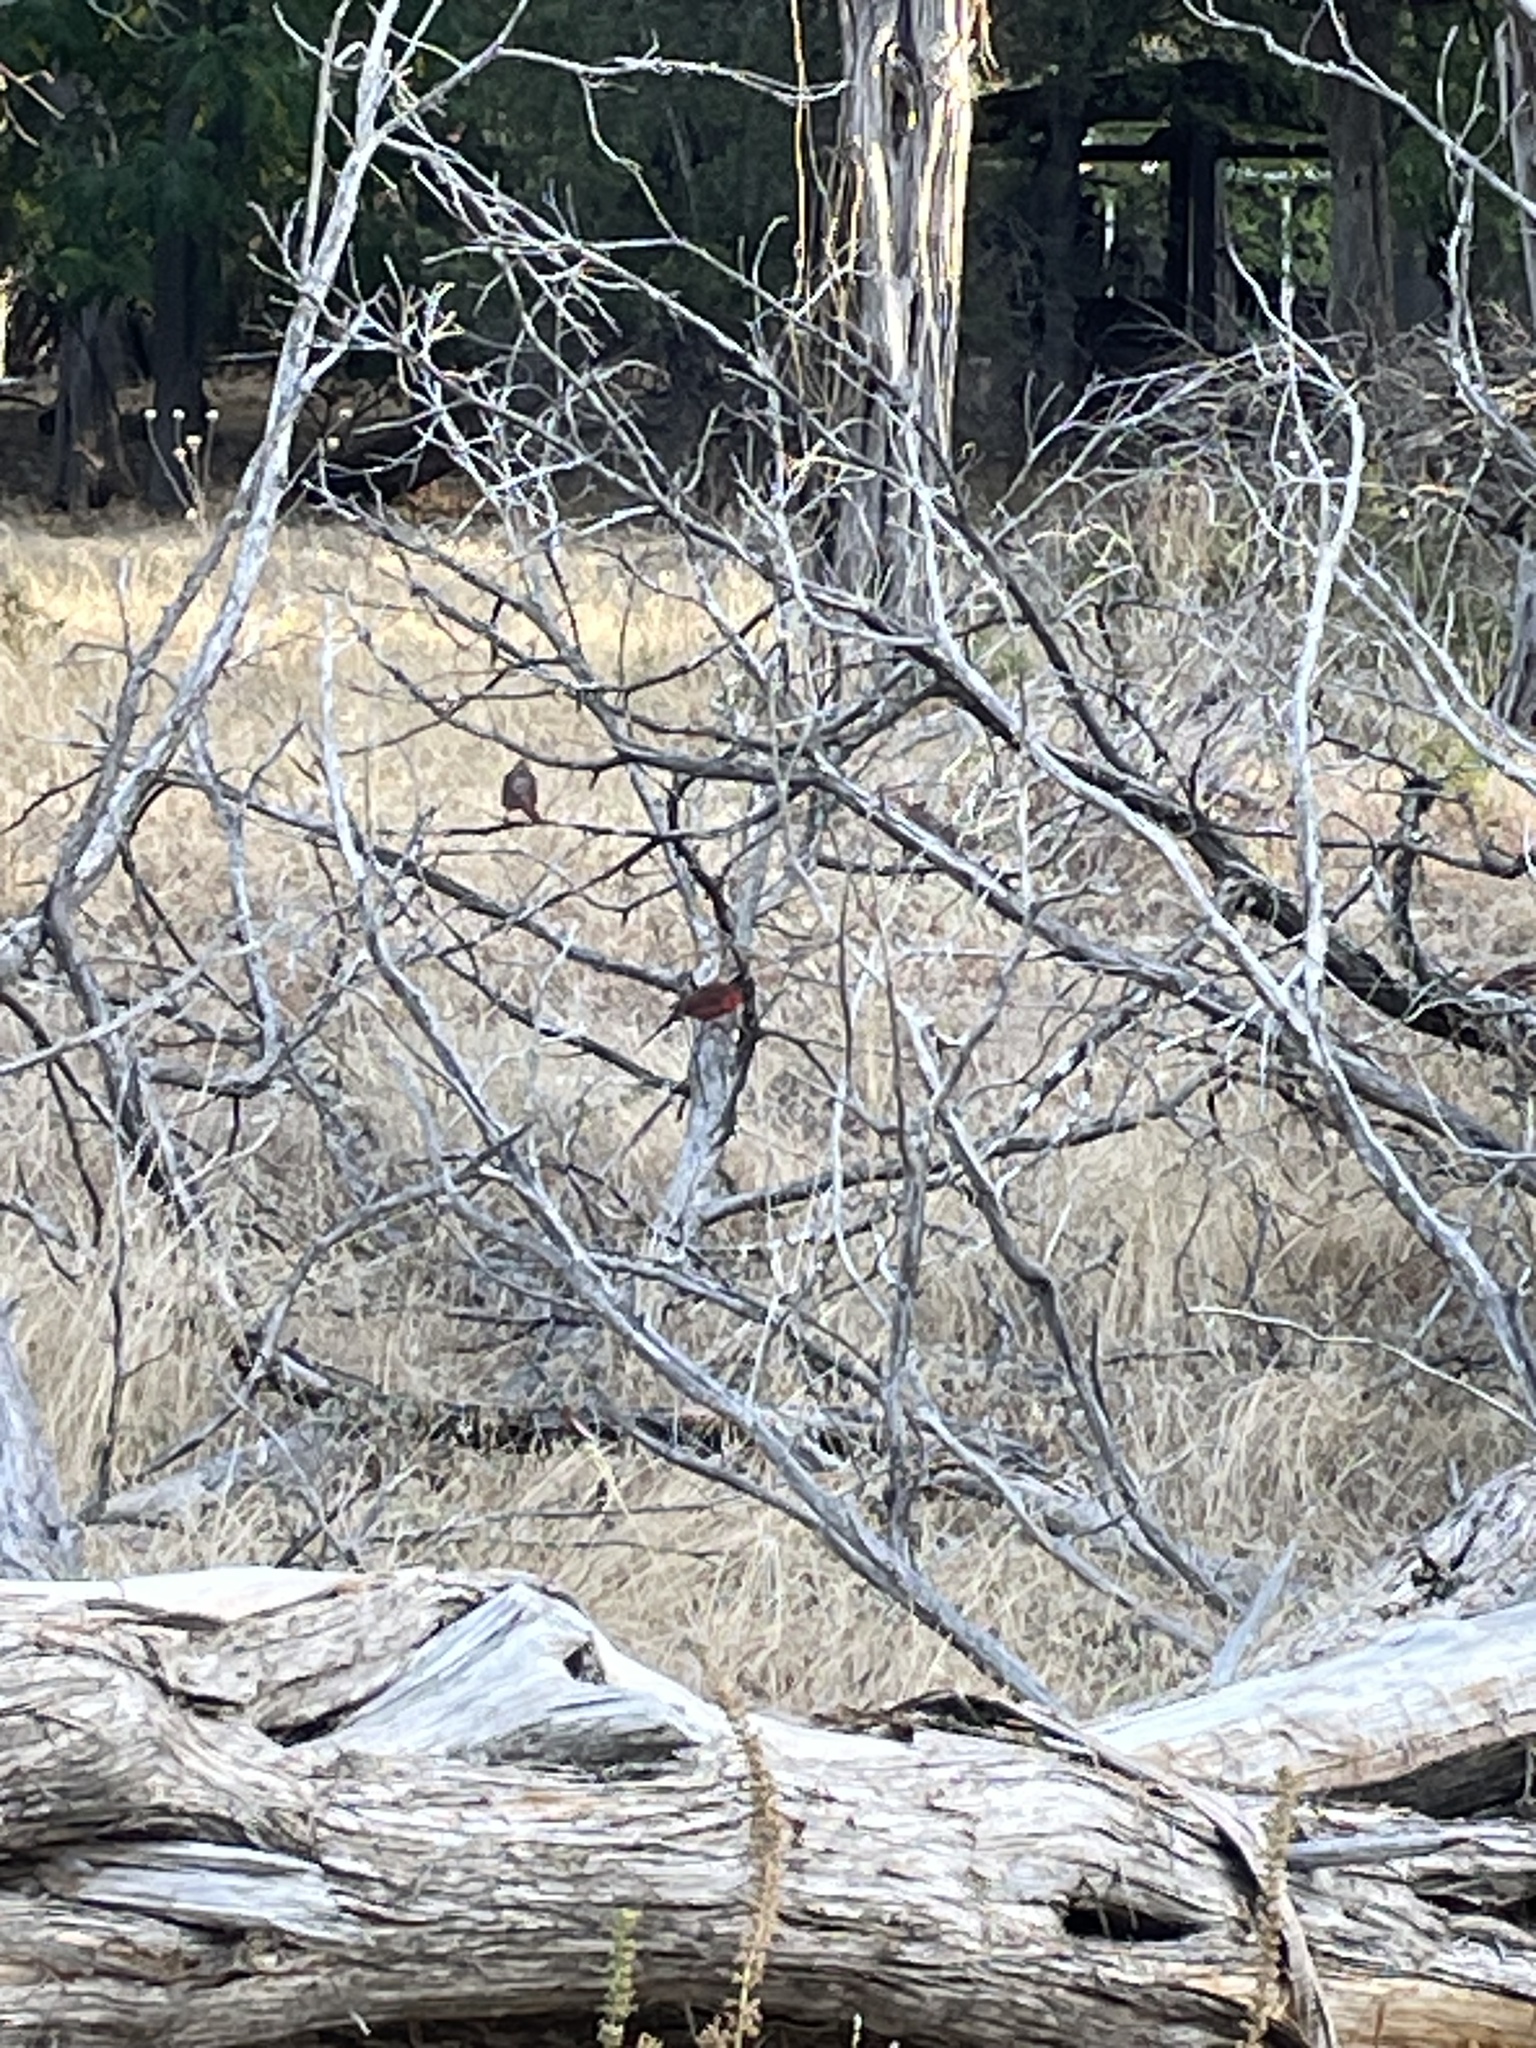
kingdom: Animalia
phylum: Chordata
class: Aves
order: Passeriformes
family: Cardinalidae
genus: Cardinalis
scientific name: Cardinalis cardinalis
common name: Northern cardinal
